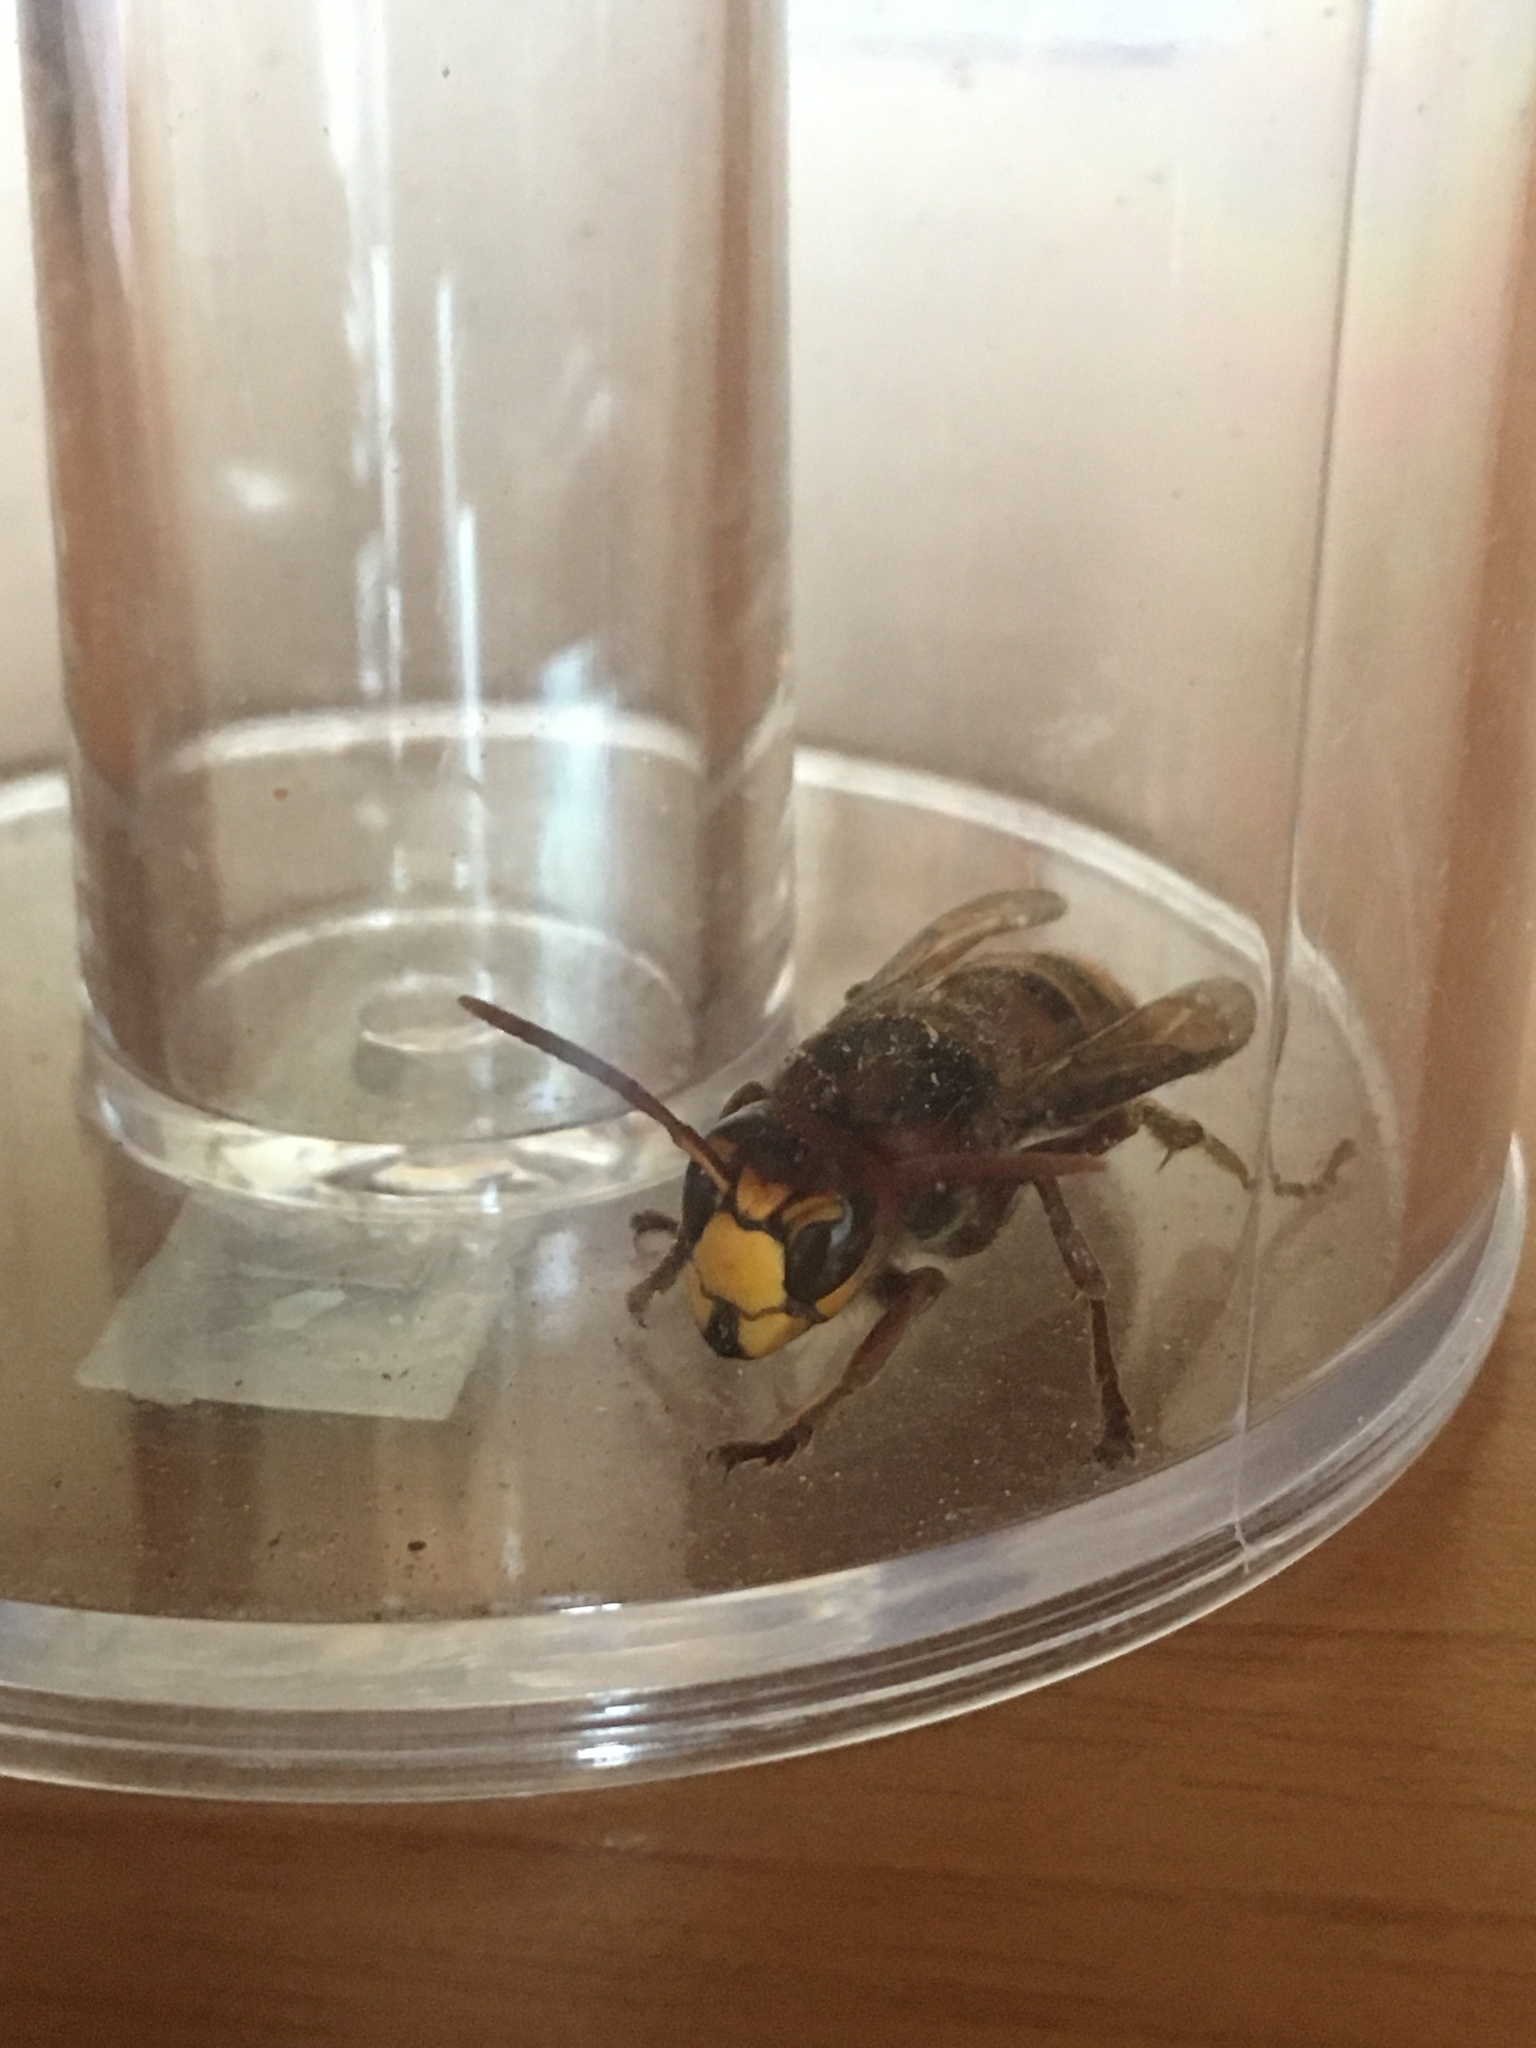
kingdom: Animalia
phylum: Arthropoda
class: Insecta
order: Hymenoptera
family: Vespidae
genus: Vespa
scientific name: Vespa crabro
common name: Hornet
